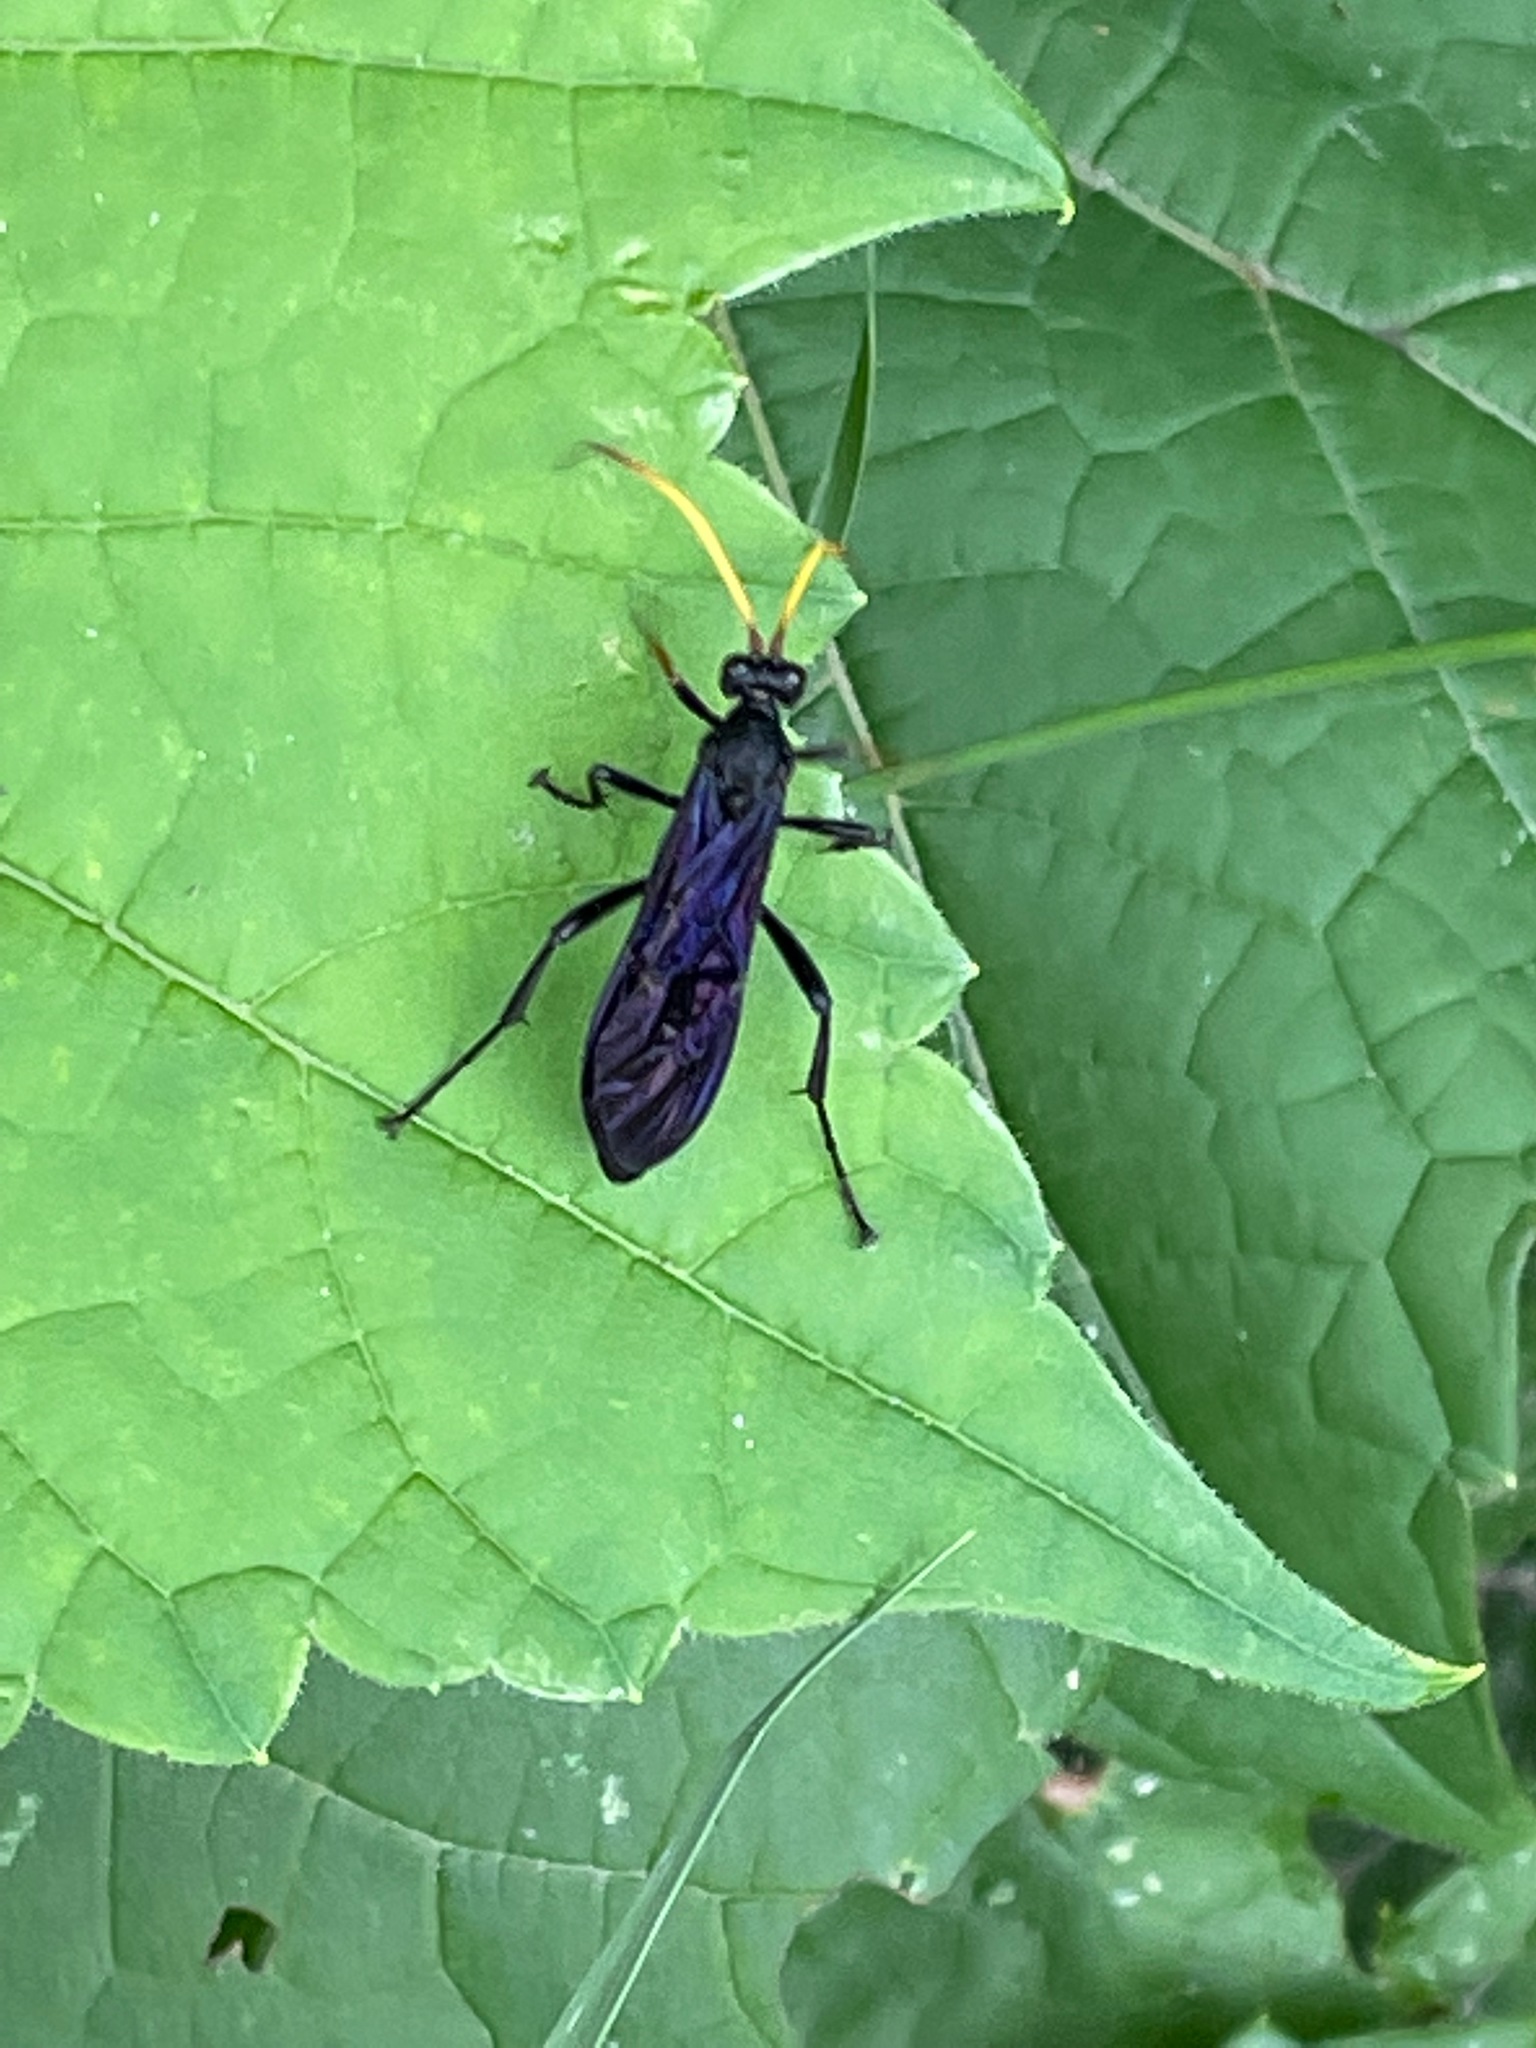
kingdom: Animalia
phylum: Arthropoda
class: Insecta
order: Hymenoptera
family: Ichneumonidae
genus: Gnamptopelta
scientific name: Gnamptopelta obsidianator
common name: Bent-shielded besieger wasp
